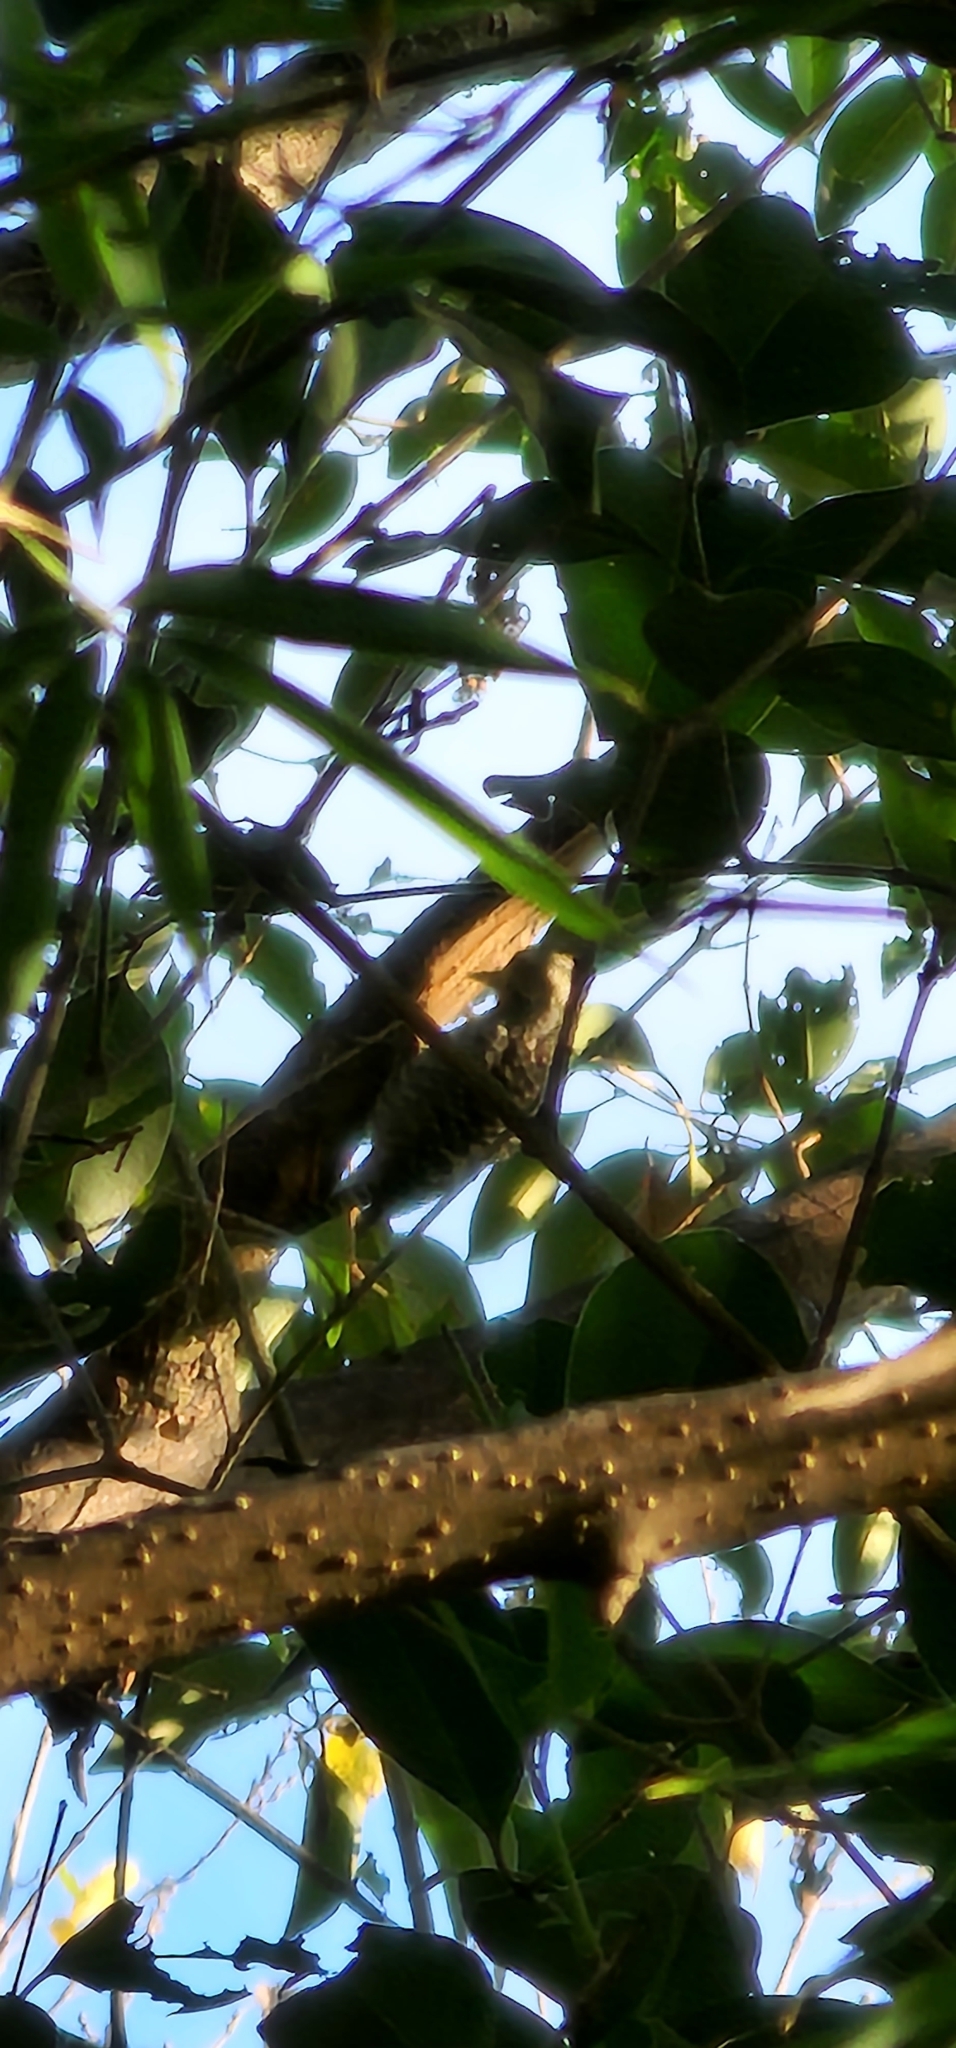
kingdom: Animalia
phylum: Chordata
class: Aves
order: Piciformes
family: Picidae
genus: Veniliornis
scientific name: Veniliornis mixtus
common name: Checkered woodpecker
